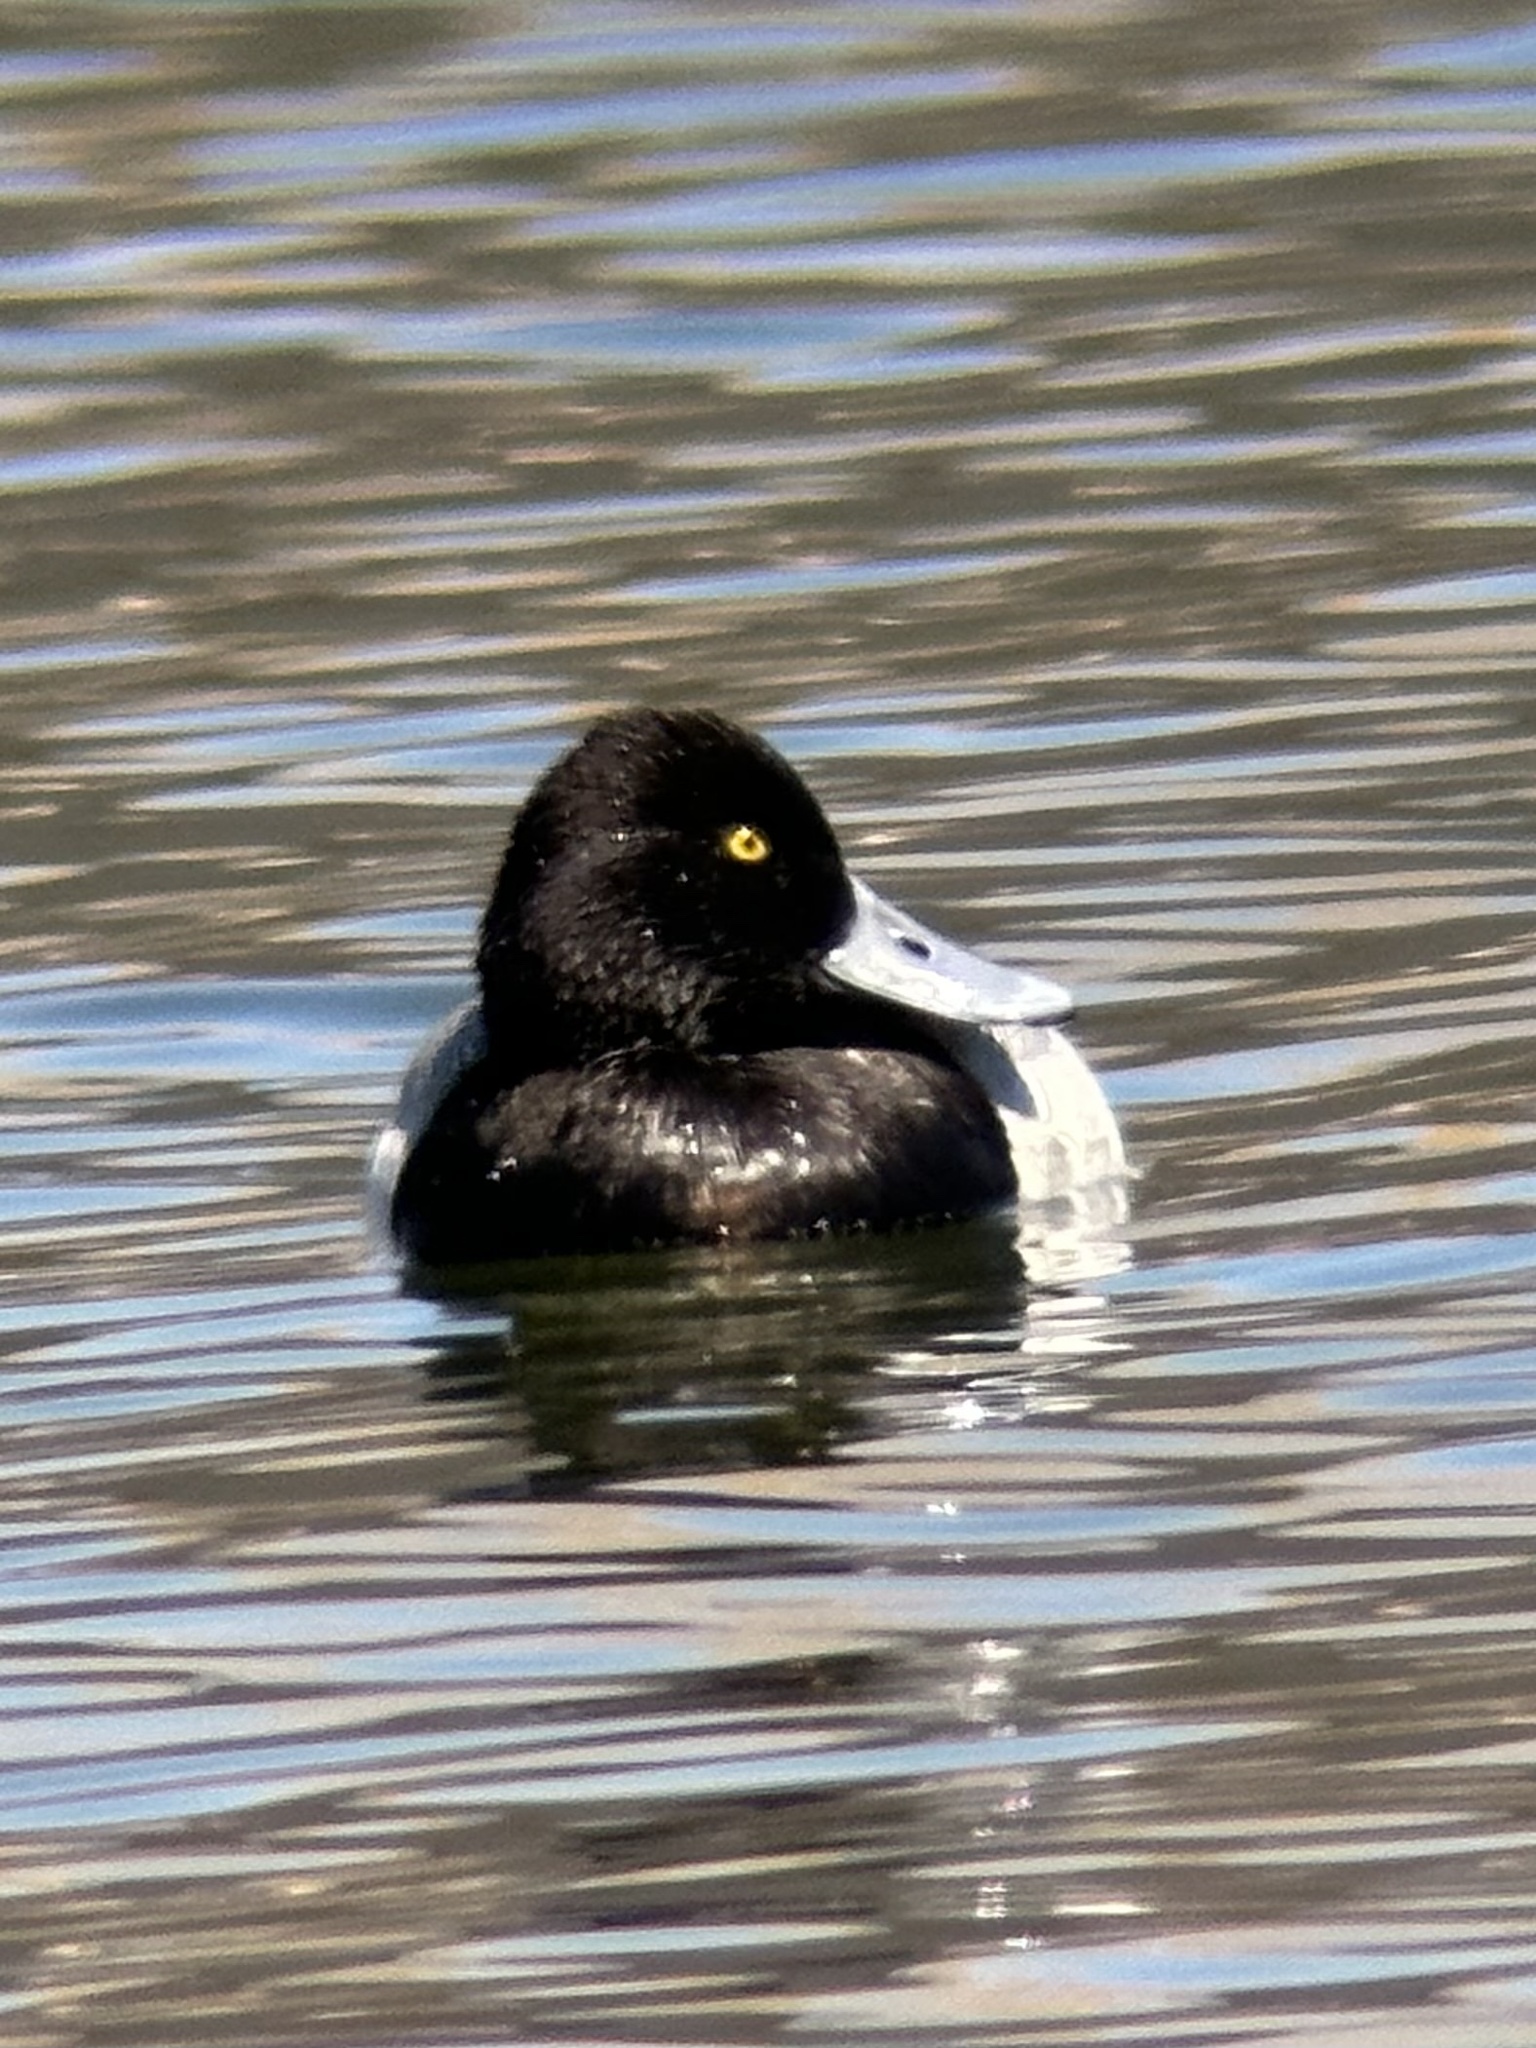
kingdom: Animalia
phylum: Chordata
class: Aves
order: Anseriformes
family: Anatidae
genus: Aythya
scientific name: Aythya affinis
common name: Lesser scaup
